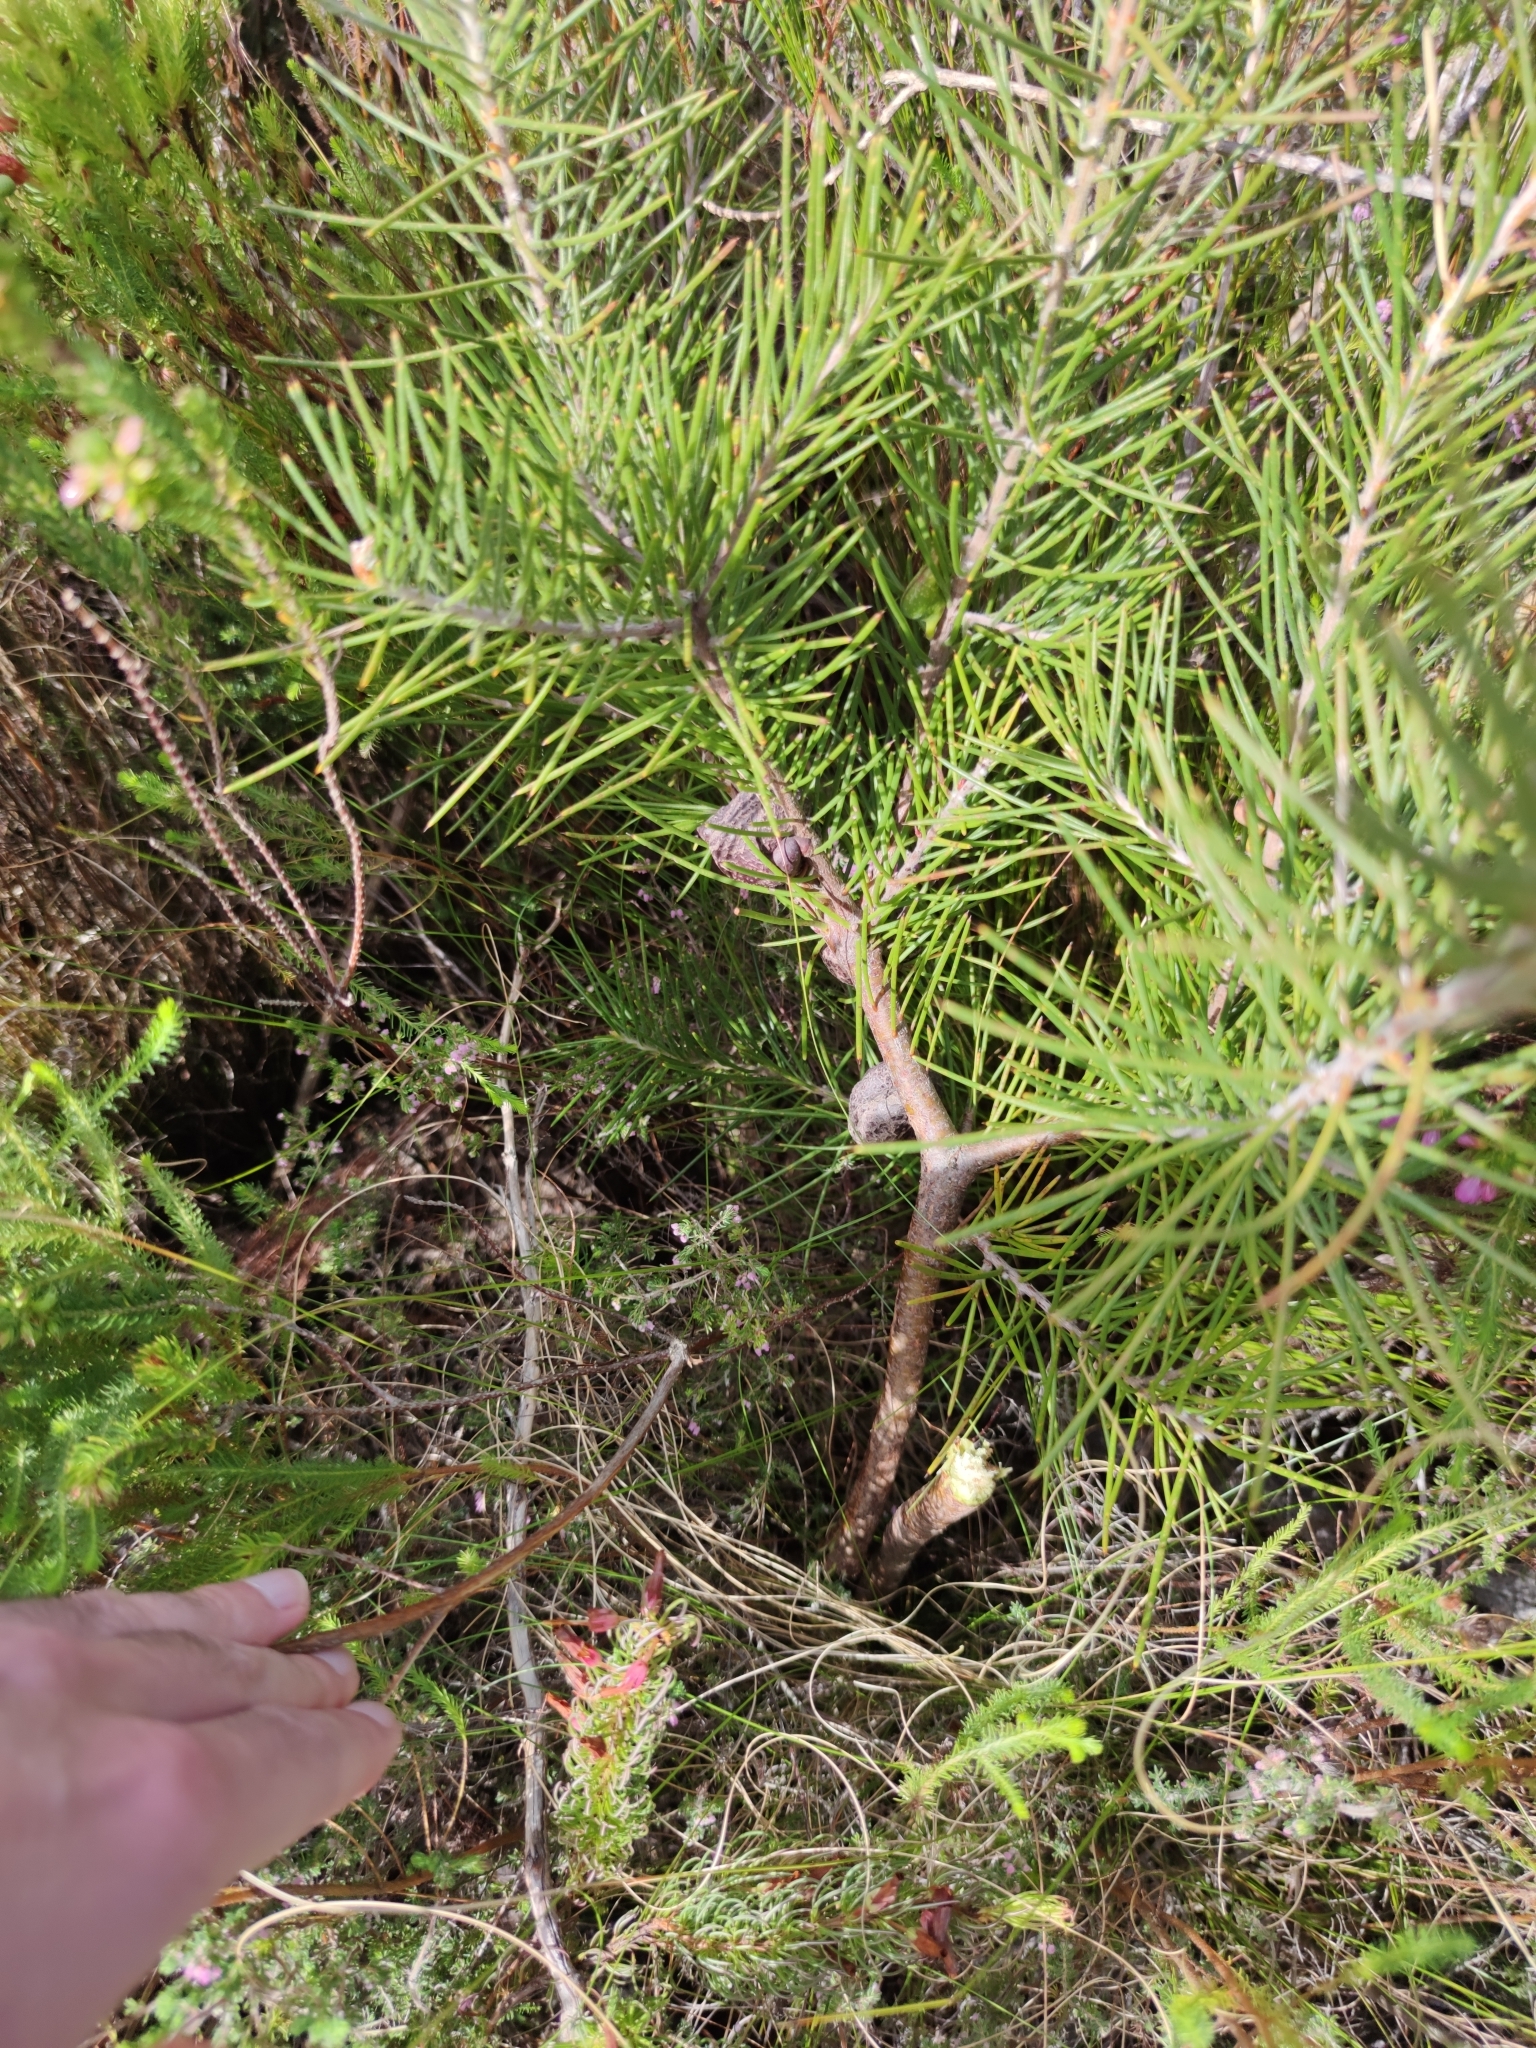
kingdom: Plantae
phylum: Tracheophyta
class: Magnoliopsida
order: Proteales
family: Proteaceae
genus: Hakea
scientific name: Hakea sericea
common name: Needle bush
